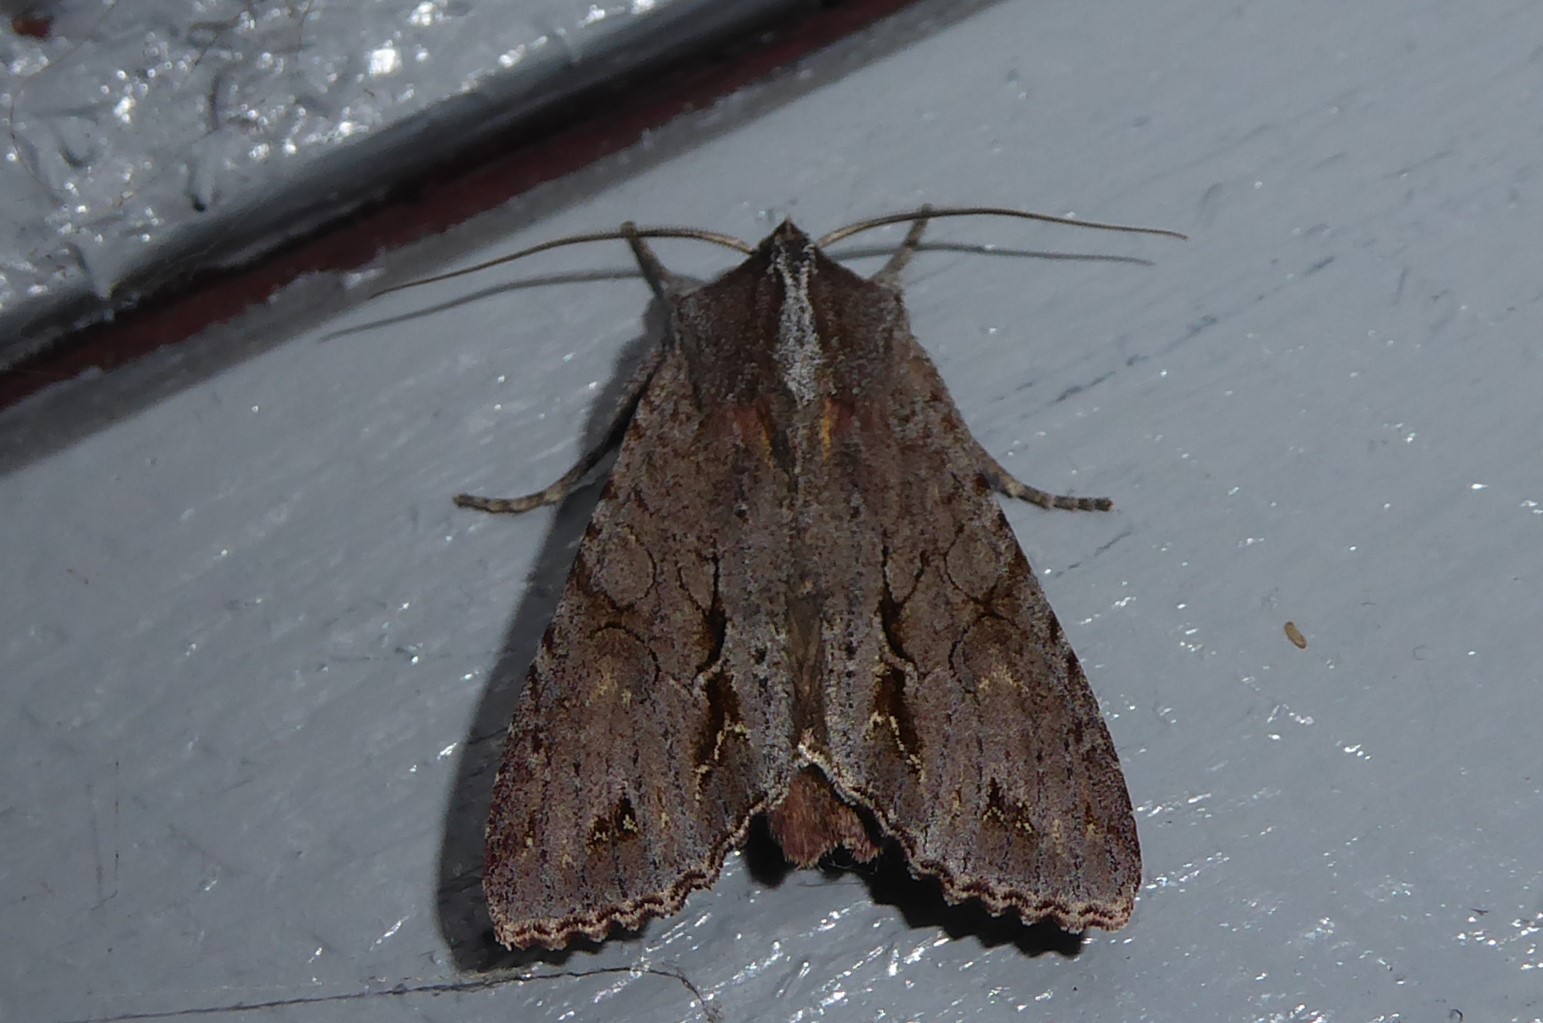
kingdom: Animalia
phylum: Arthropoda
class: Insecta
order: Lepidoptera
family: Noctuidae
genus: Ichneutica
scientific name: Ichneutica
